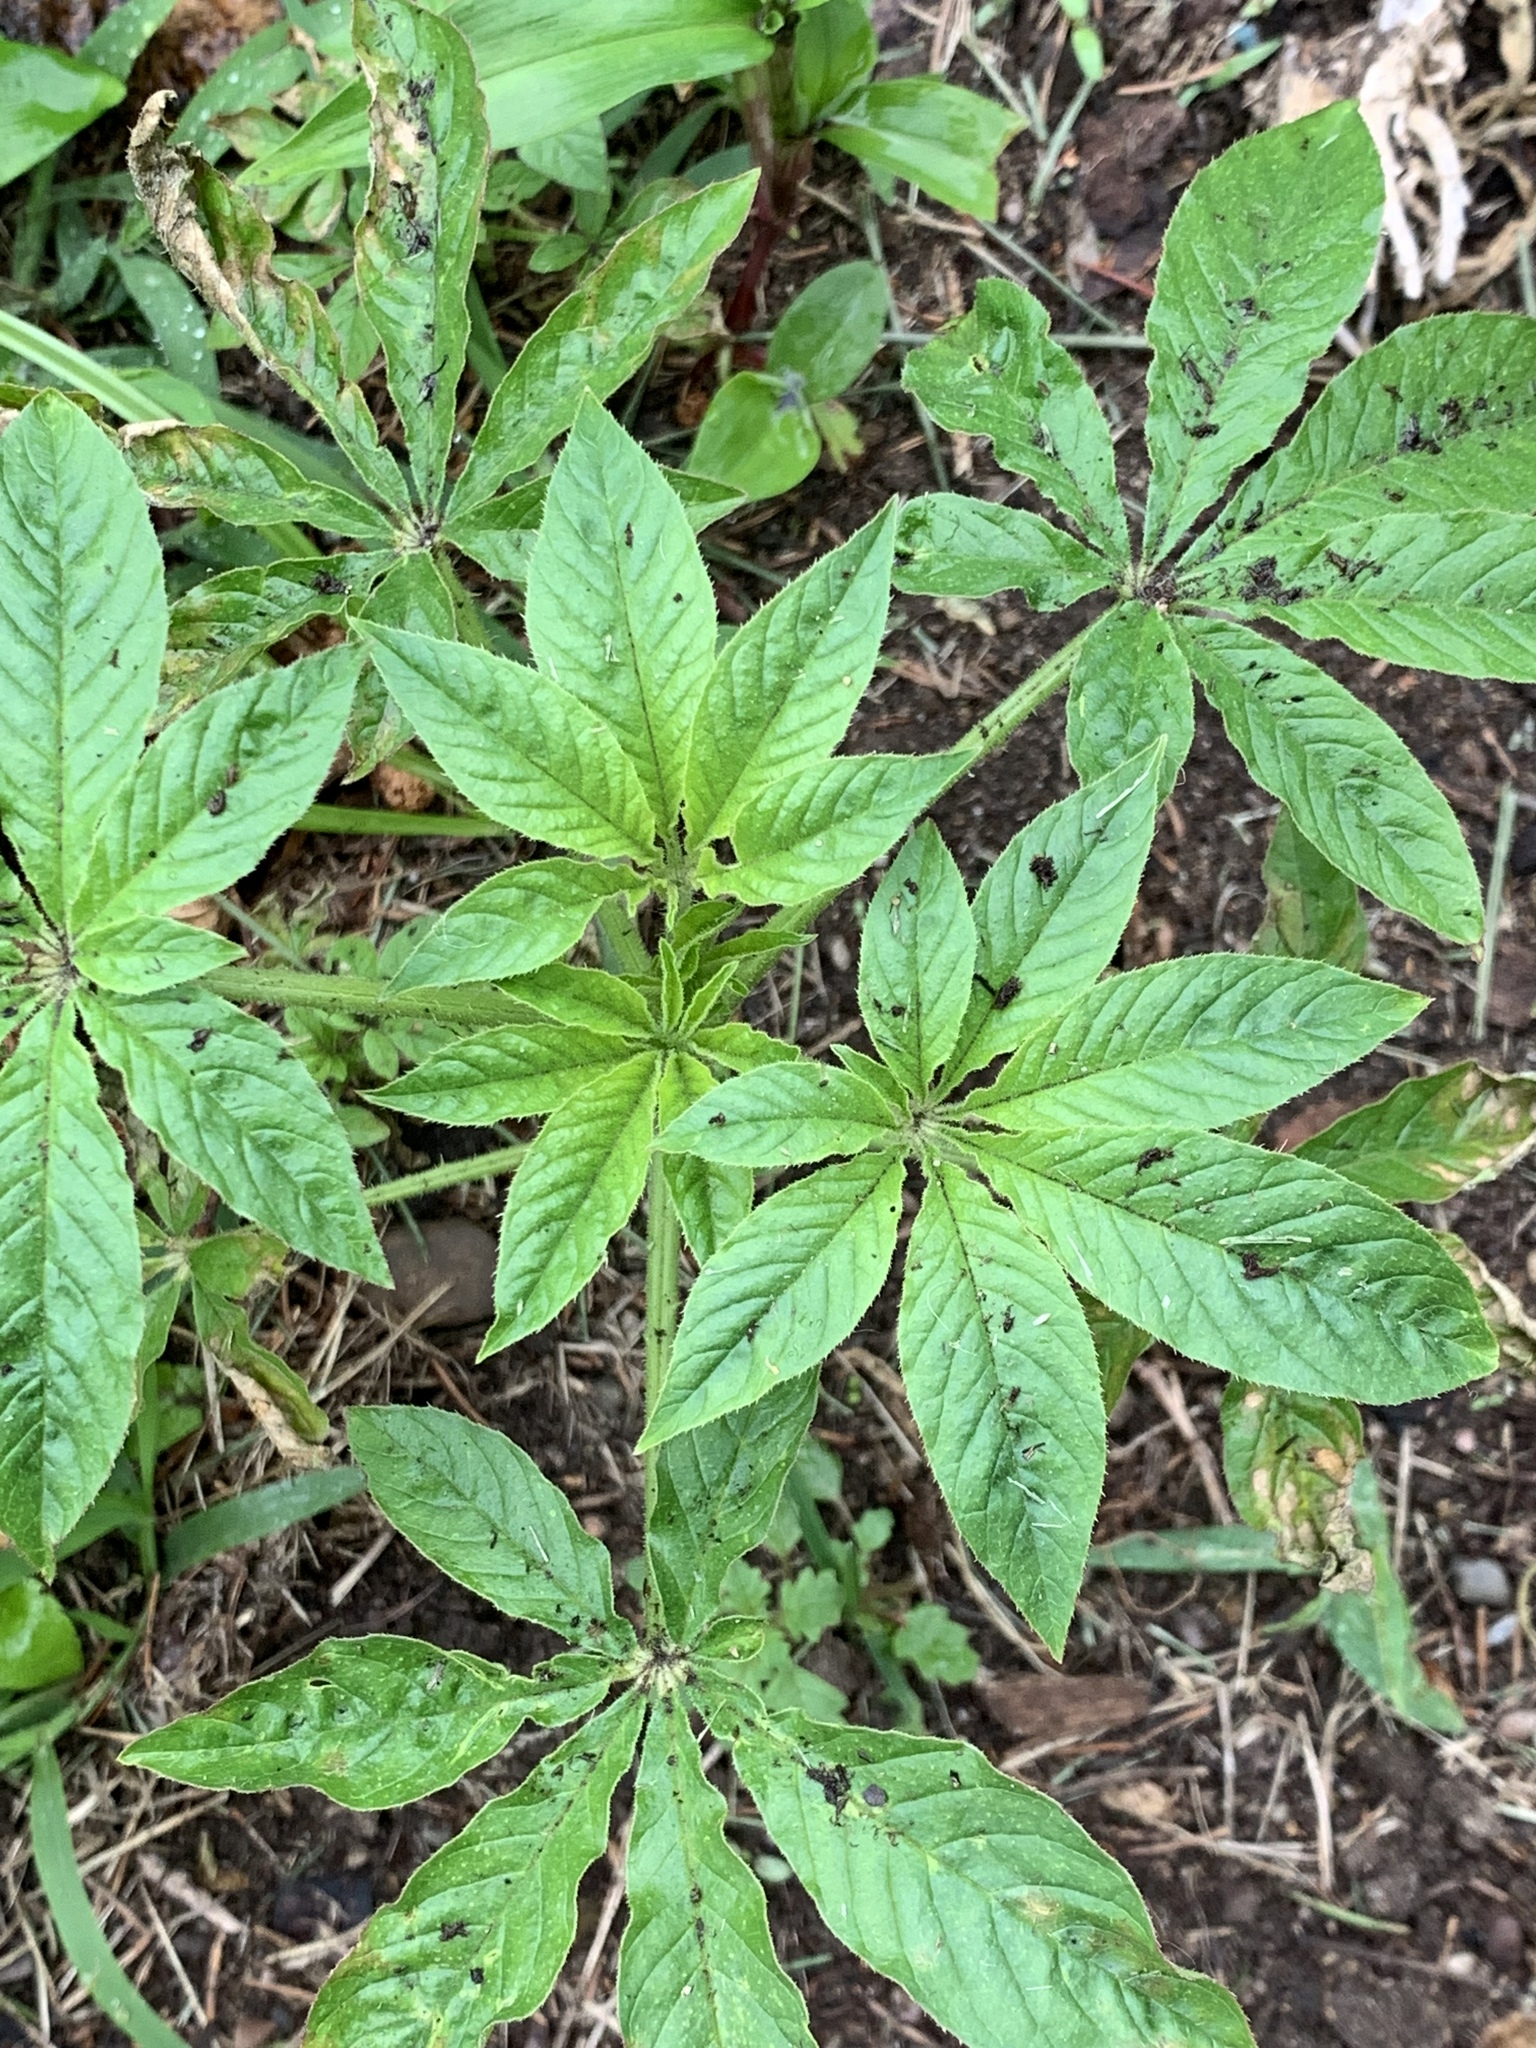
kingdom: Plantae
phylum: Tracheophyta
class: Magnoliopsida
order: Brassicales
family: Cleomaceae
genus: Tarenaya
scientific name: Tarenaya houtteana
